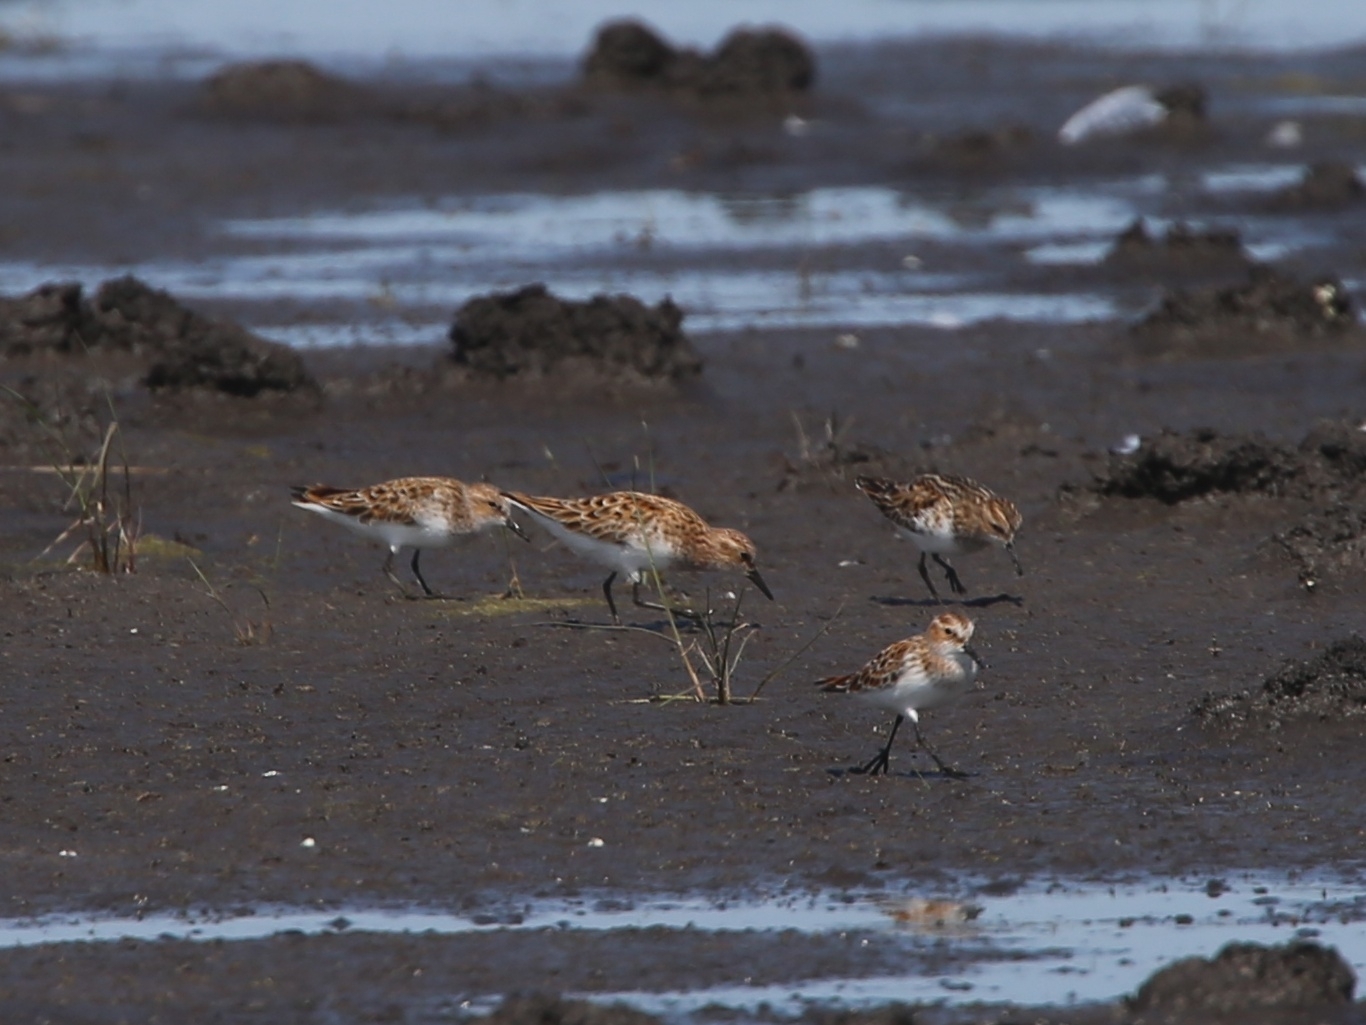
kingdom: Animalia
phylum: Chordata
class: Aves
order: Charadriiformes
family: Scolopacidae
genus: Calidris
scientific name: Calidris minuta
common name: Little stint
